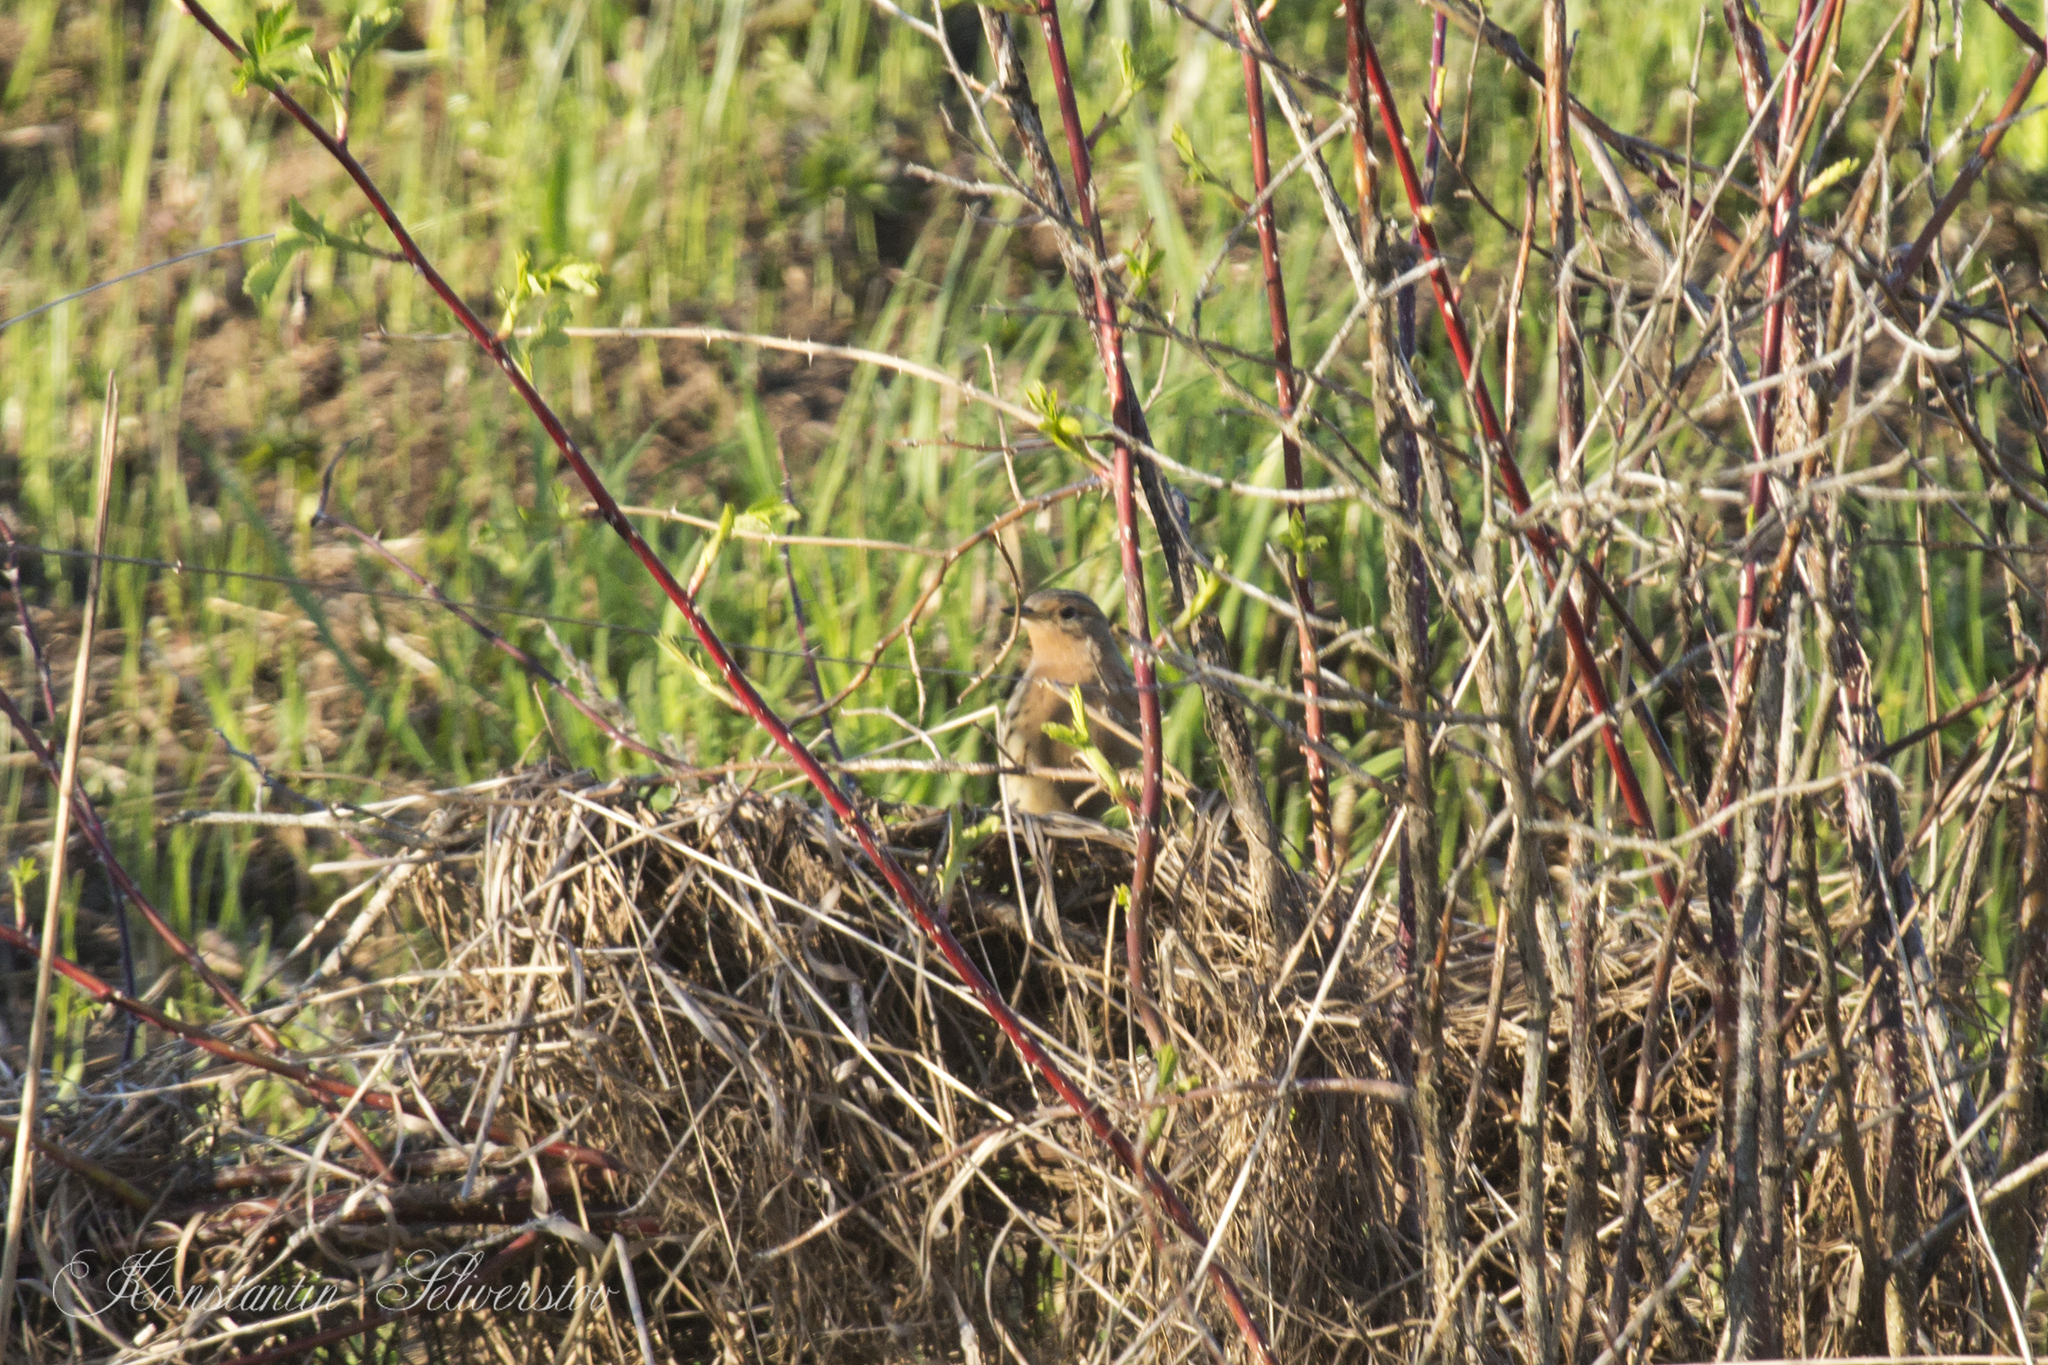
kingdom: Animalia
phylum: Chordata
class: Aves
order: Passeriformes
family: Motacillidae
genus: Anthus
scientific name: Anthus cervinus
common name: Red-throated pipit
